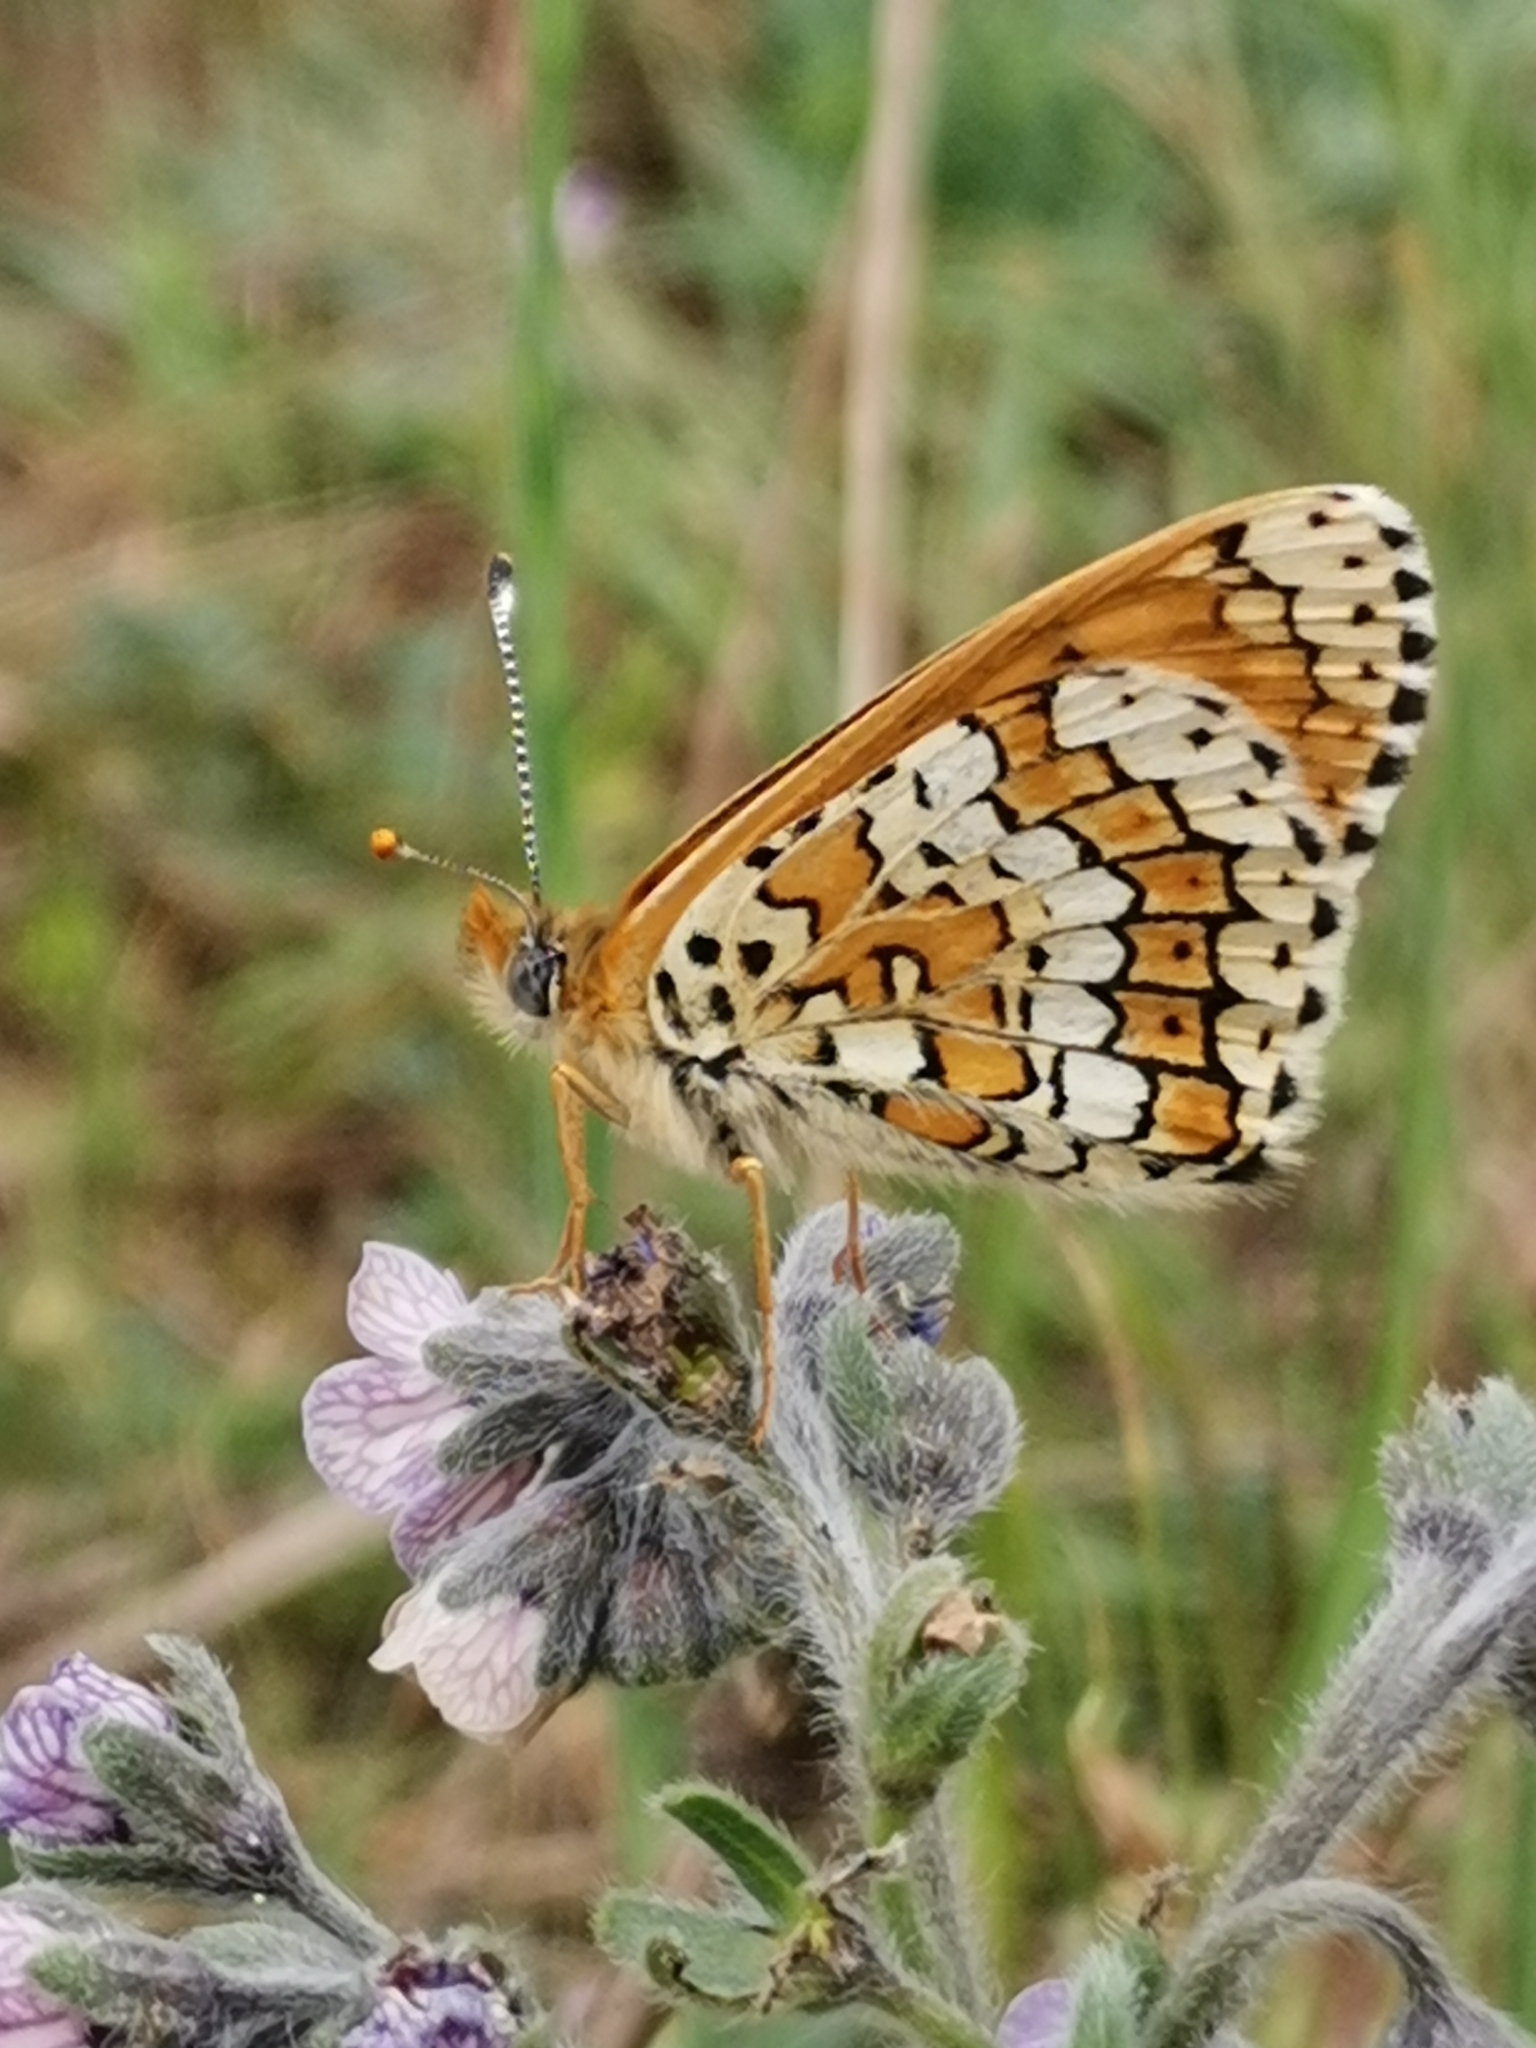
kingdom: Animalia
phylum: Arthropoda
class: Insecta
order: Lepidoptera
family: Nymphalidae
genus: Melitaea
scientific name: Melitaea cinxia
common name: Glanville fritillary
